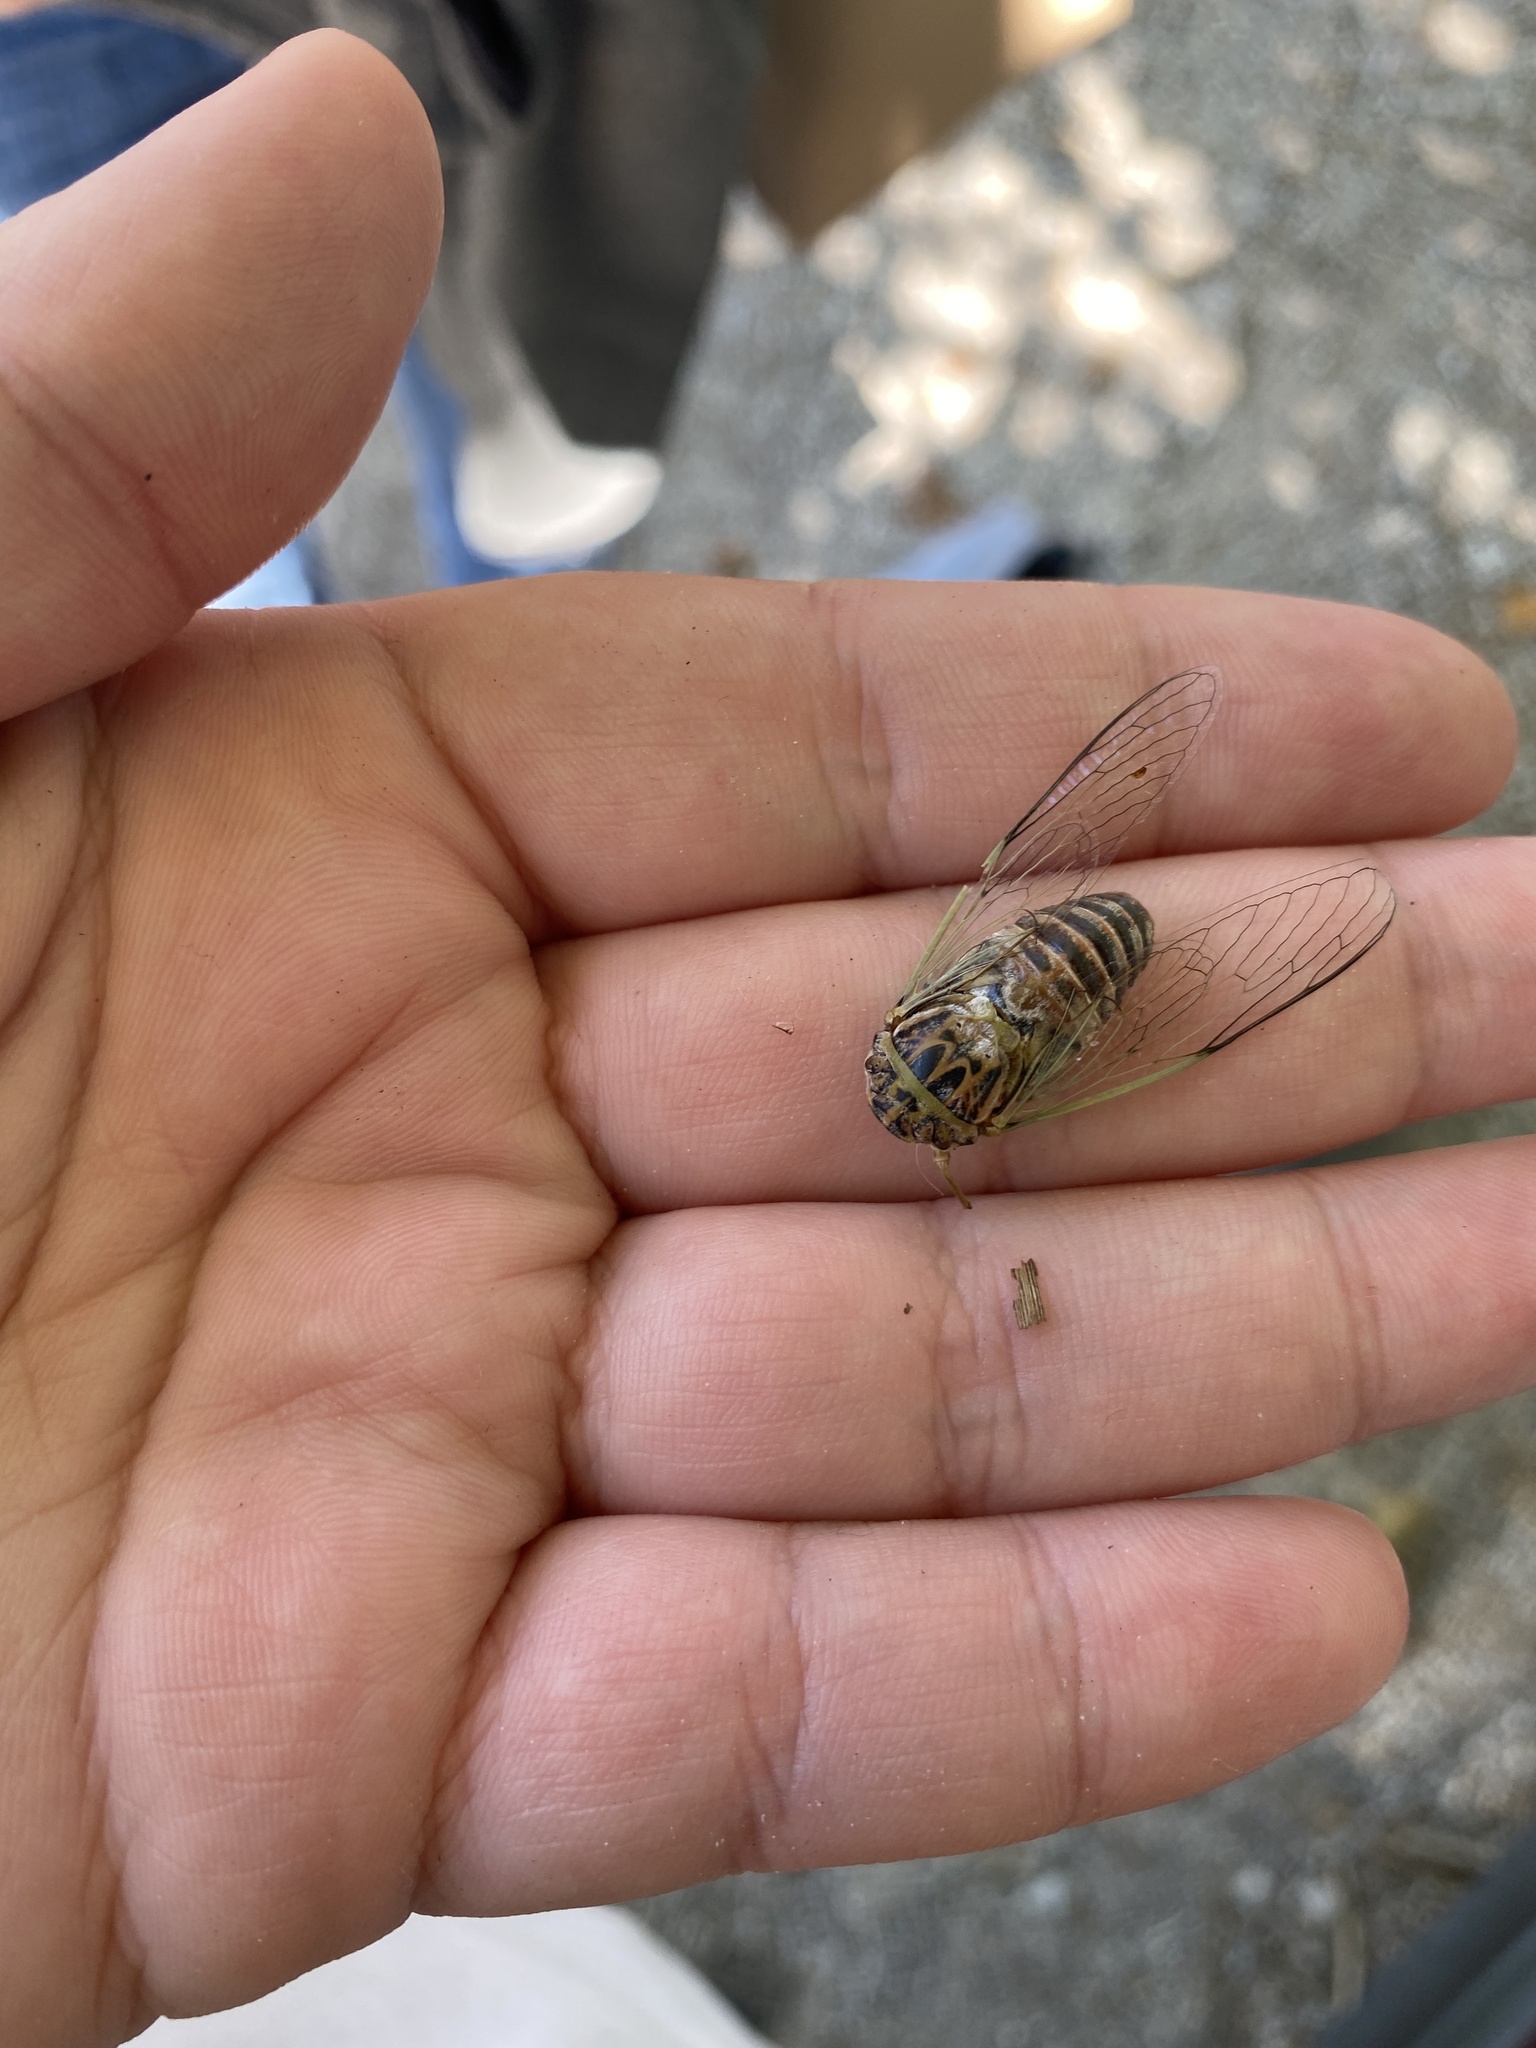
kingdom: Animalia
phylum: Arthropoda
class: Insecta
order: Hemiptera
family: Cicadidae
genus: Hadoa
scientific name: Hadoa texana
